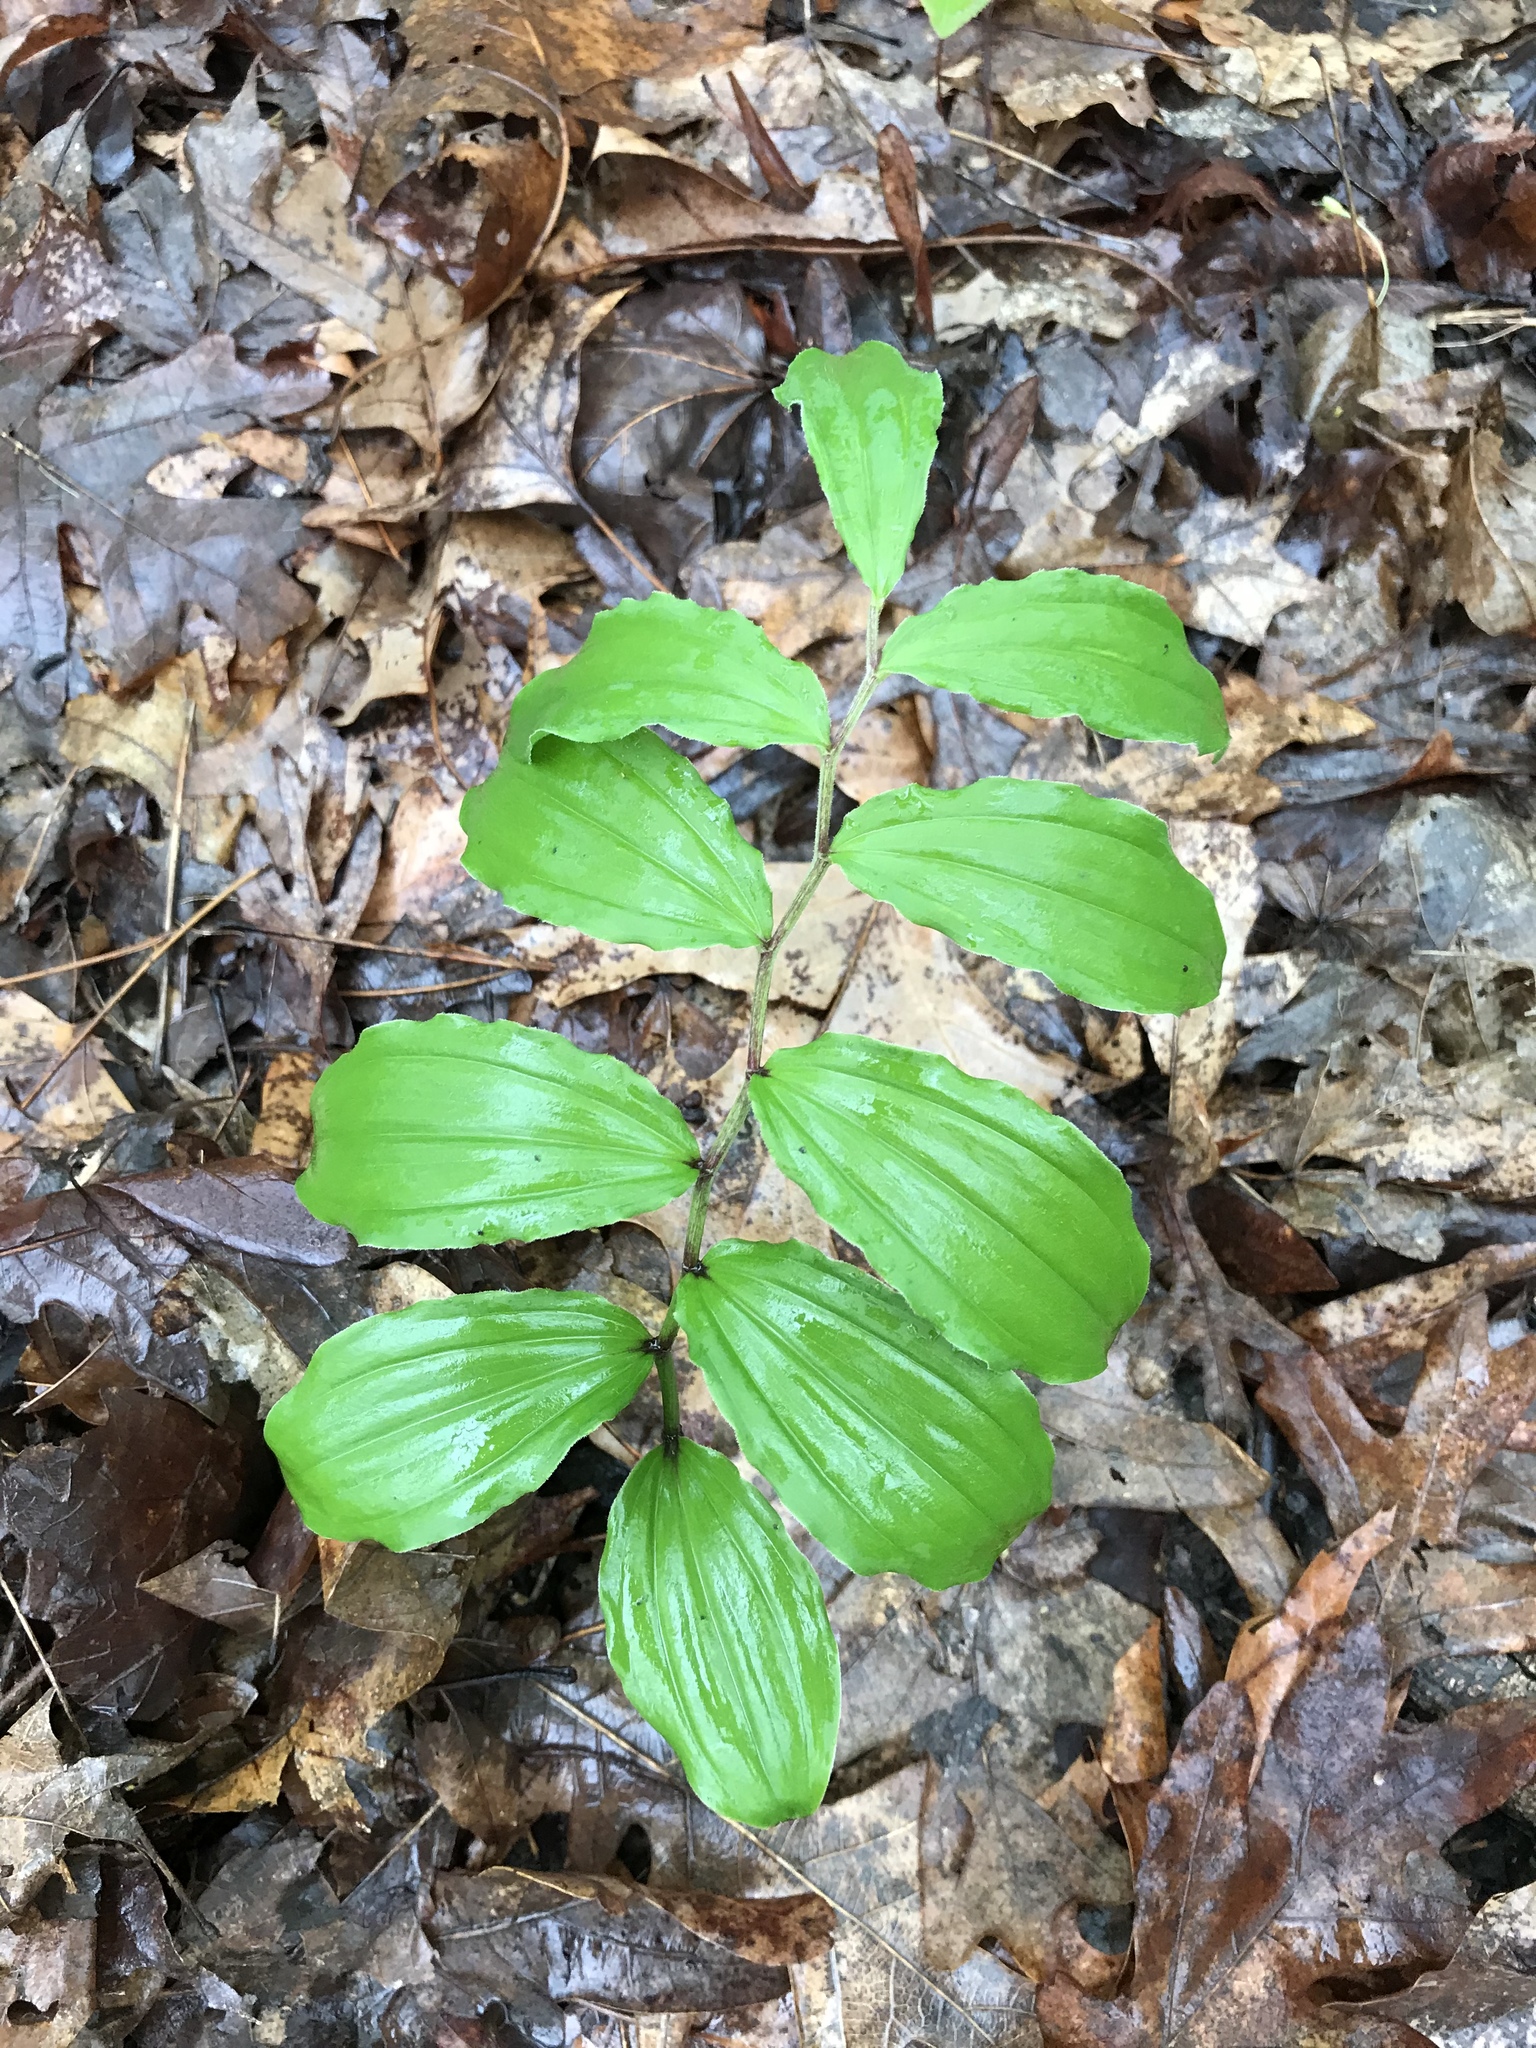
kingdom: Plantae
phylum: Tracheophyta
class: Liliopsida
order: Asparagales
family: Asparagaceae
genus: Maianthemum
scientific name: Maianthemum racemosum
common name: False spikenard
